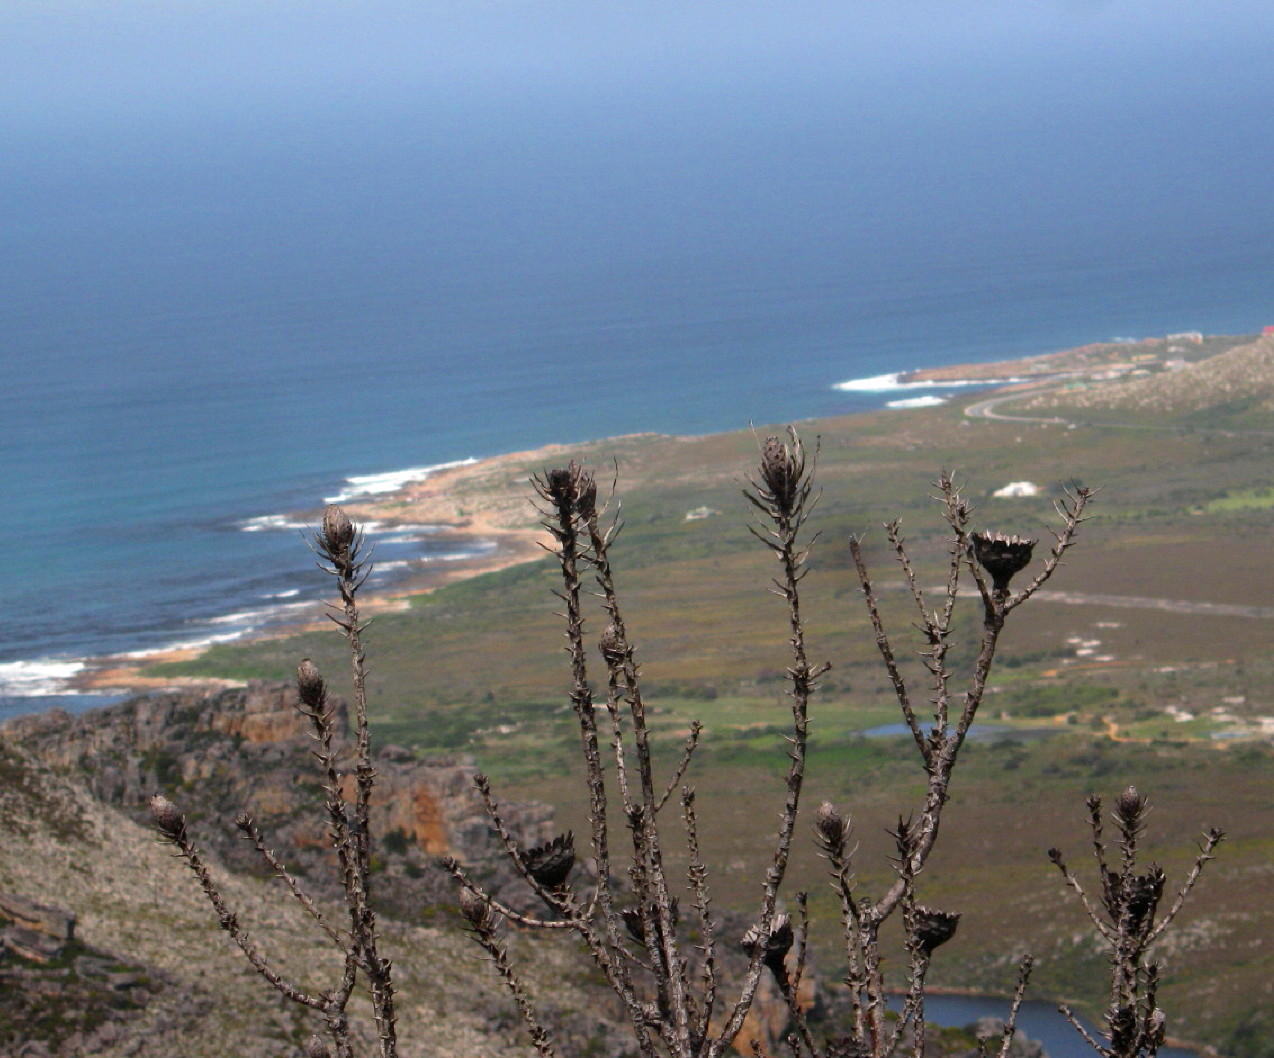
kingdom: Plantae
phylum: Tracheophyta
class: Magnoliopsida
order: Proteales
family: Proteaceae
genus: Protea
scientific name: Protea compacta
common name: Bot river protea
